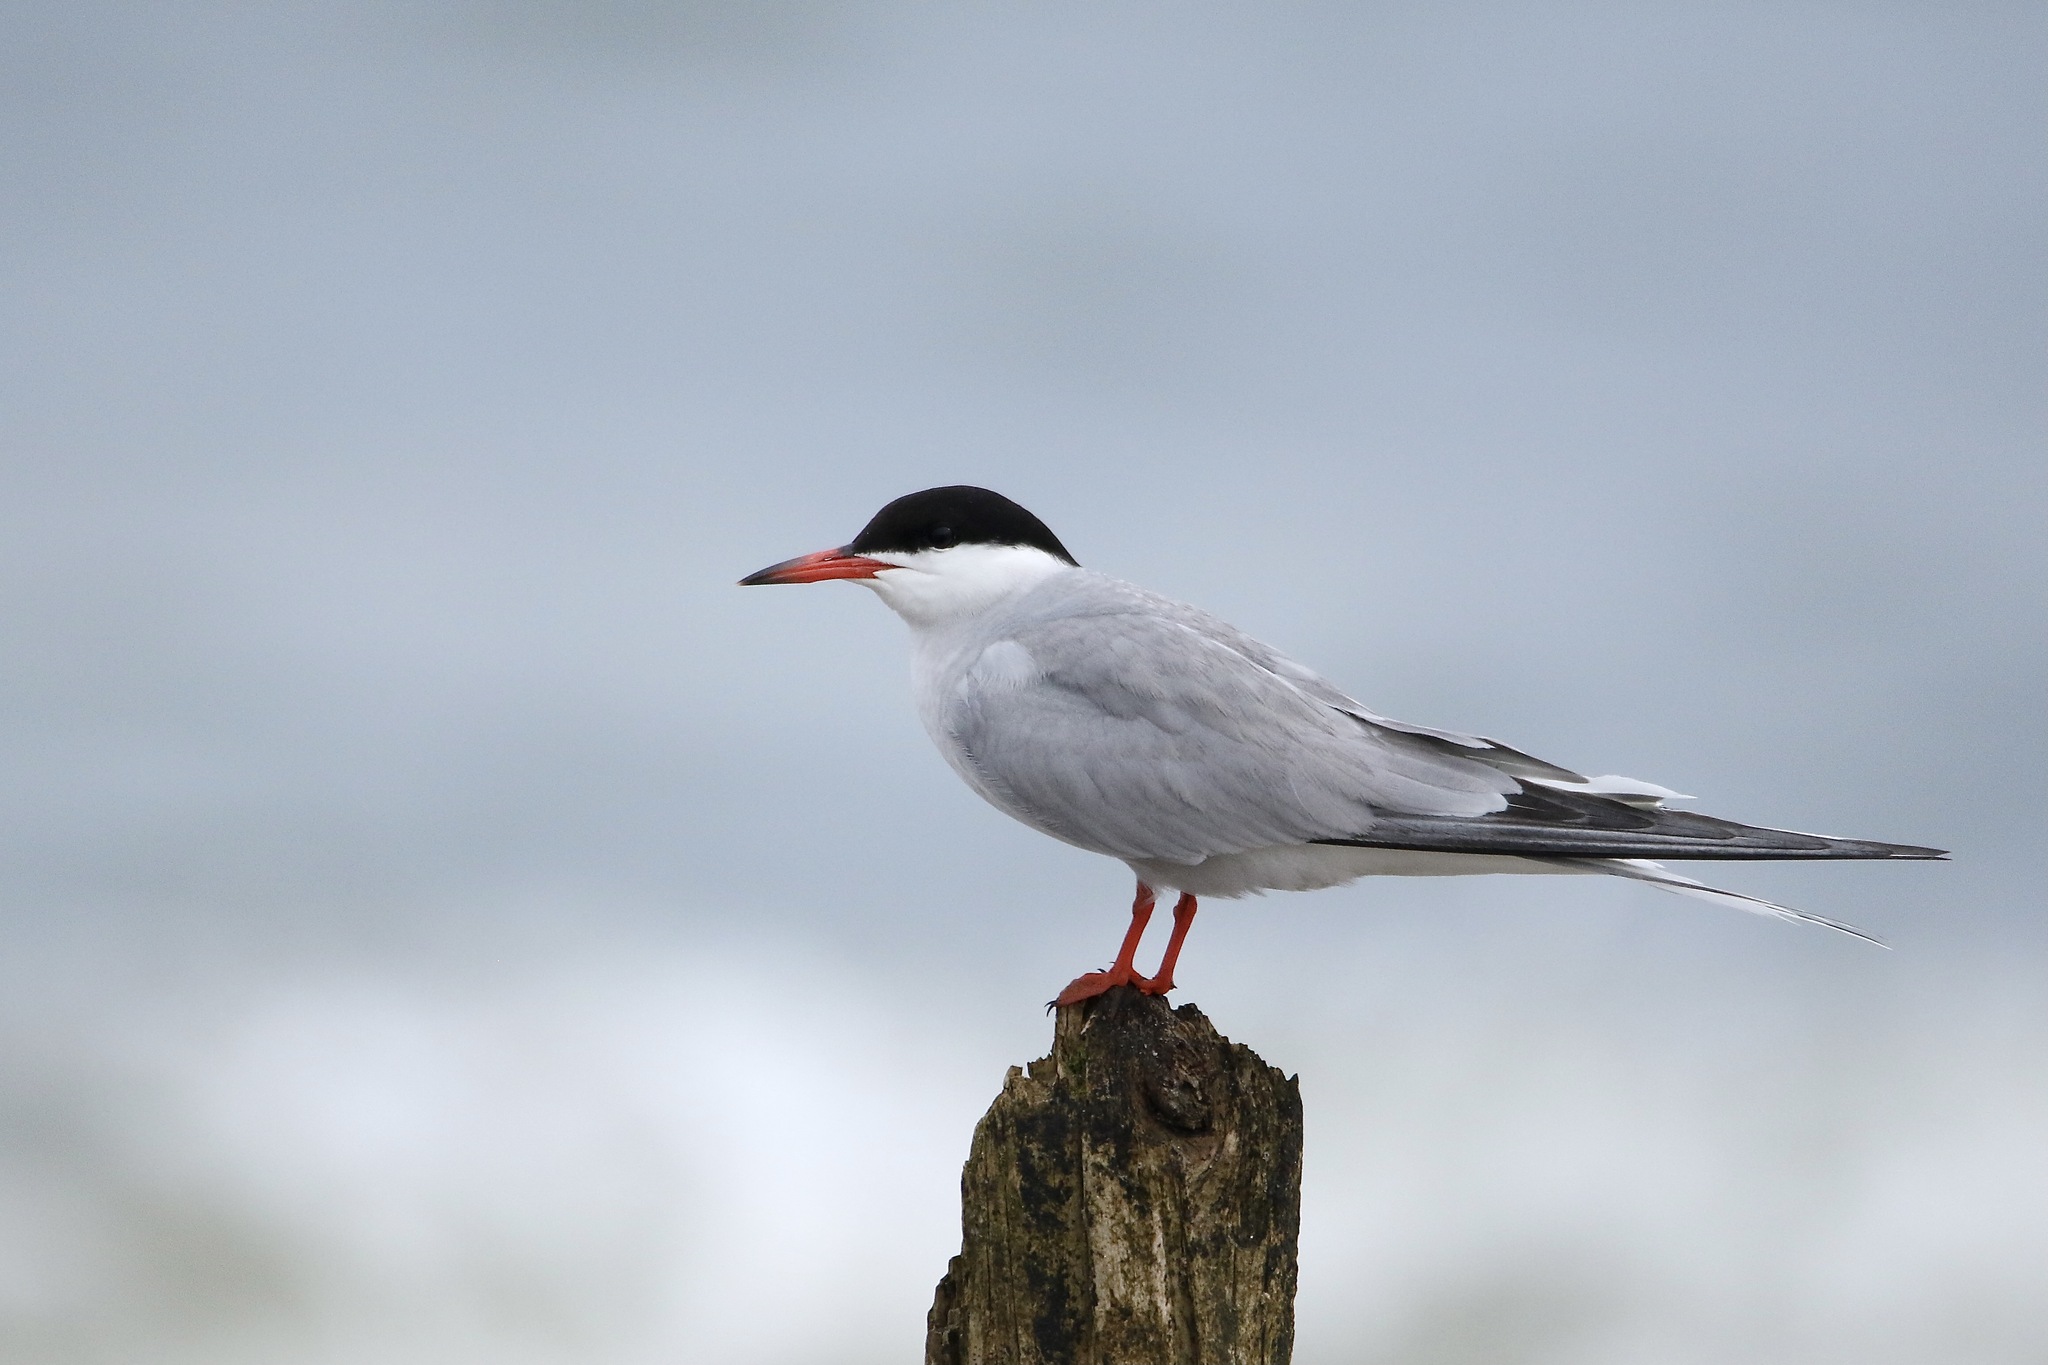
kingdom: Animalia
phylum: Chordata
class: Aves
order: Charadriiformes
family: Laridae
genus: Sterna
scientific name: Sterna hirundo
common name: Common tern
